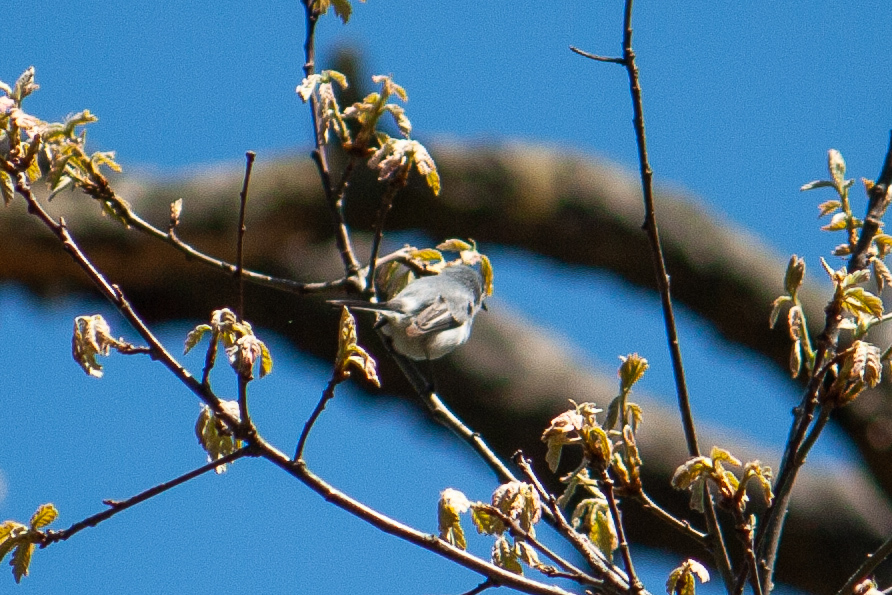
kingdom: Animalia
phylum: Chordata
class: Aves
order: Passeriformes
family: Polioptilidae
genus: Polioptila
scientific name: Polioptila caerulea
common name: Blue-gray gnatcatcher
